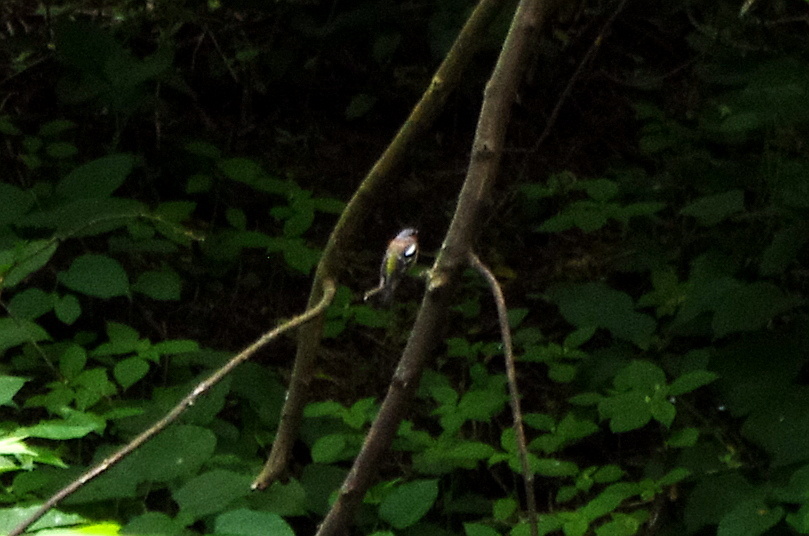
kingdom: Animalia
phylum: Chordata
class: Aves
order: Passeriformes
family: Fringillidae
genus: Fringilla
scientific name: Fringilla coelebs
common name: Common chaffinch
